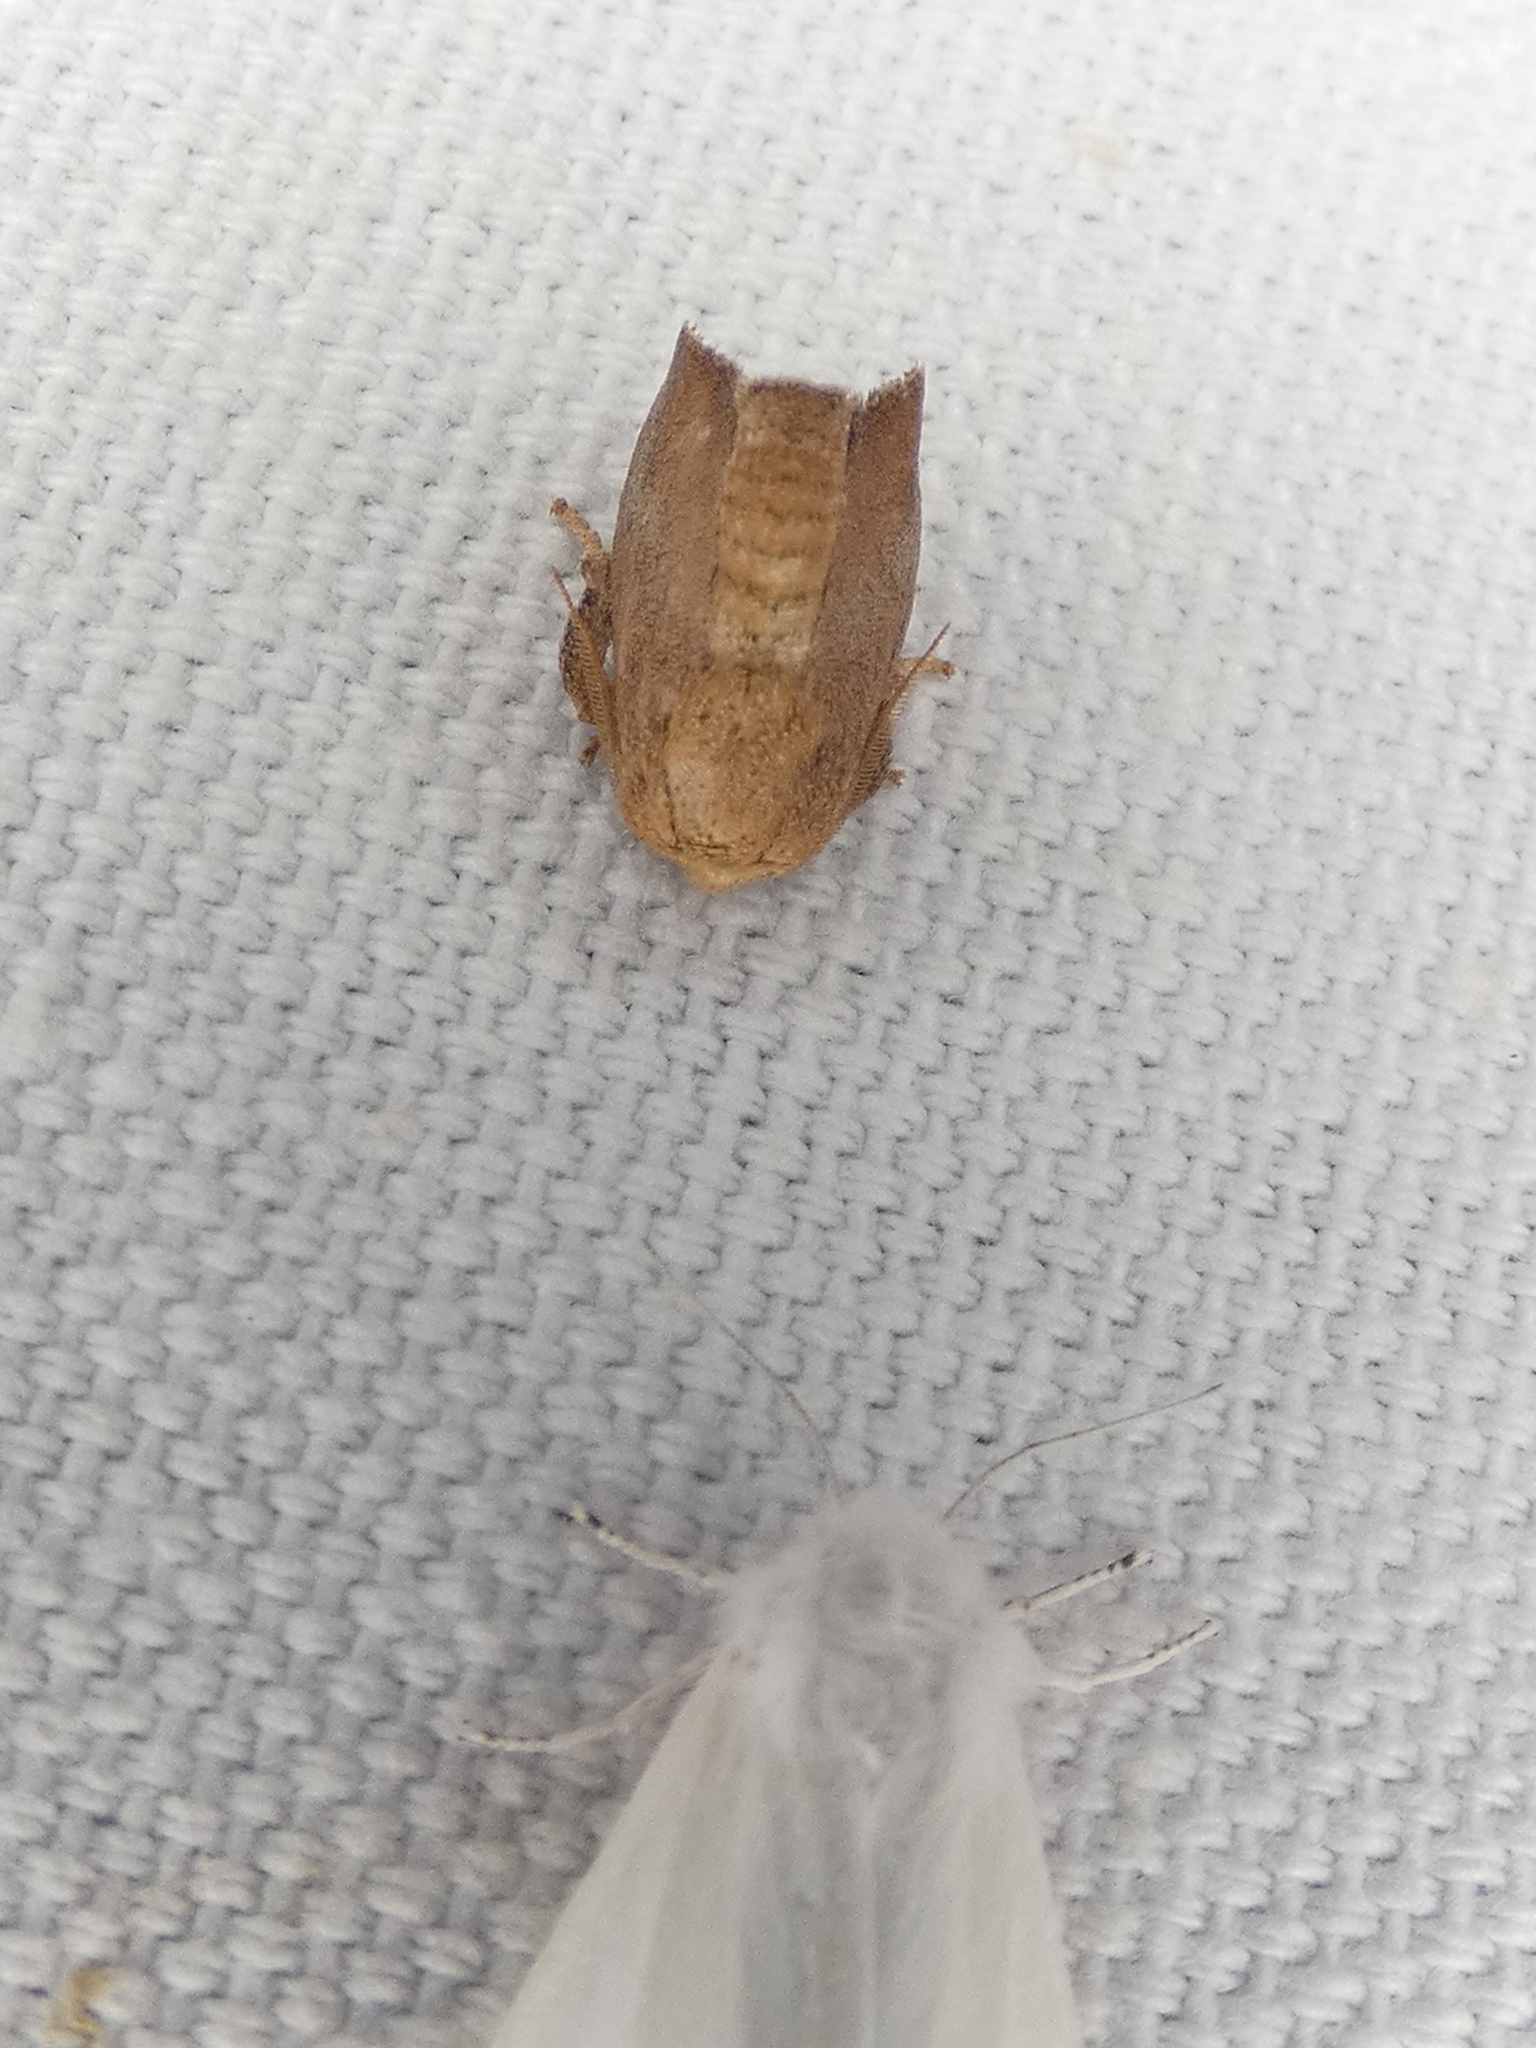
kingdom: Animalia
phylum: Arthropoda
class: Insecta
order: Lepidoptera
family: Limacodidae
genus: Isa
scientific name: Isa textula
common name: Crowned slug moth
